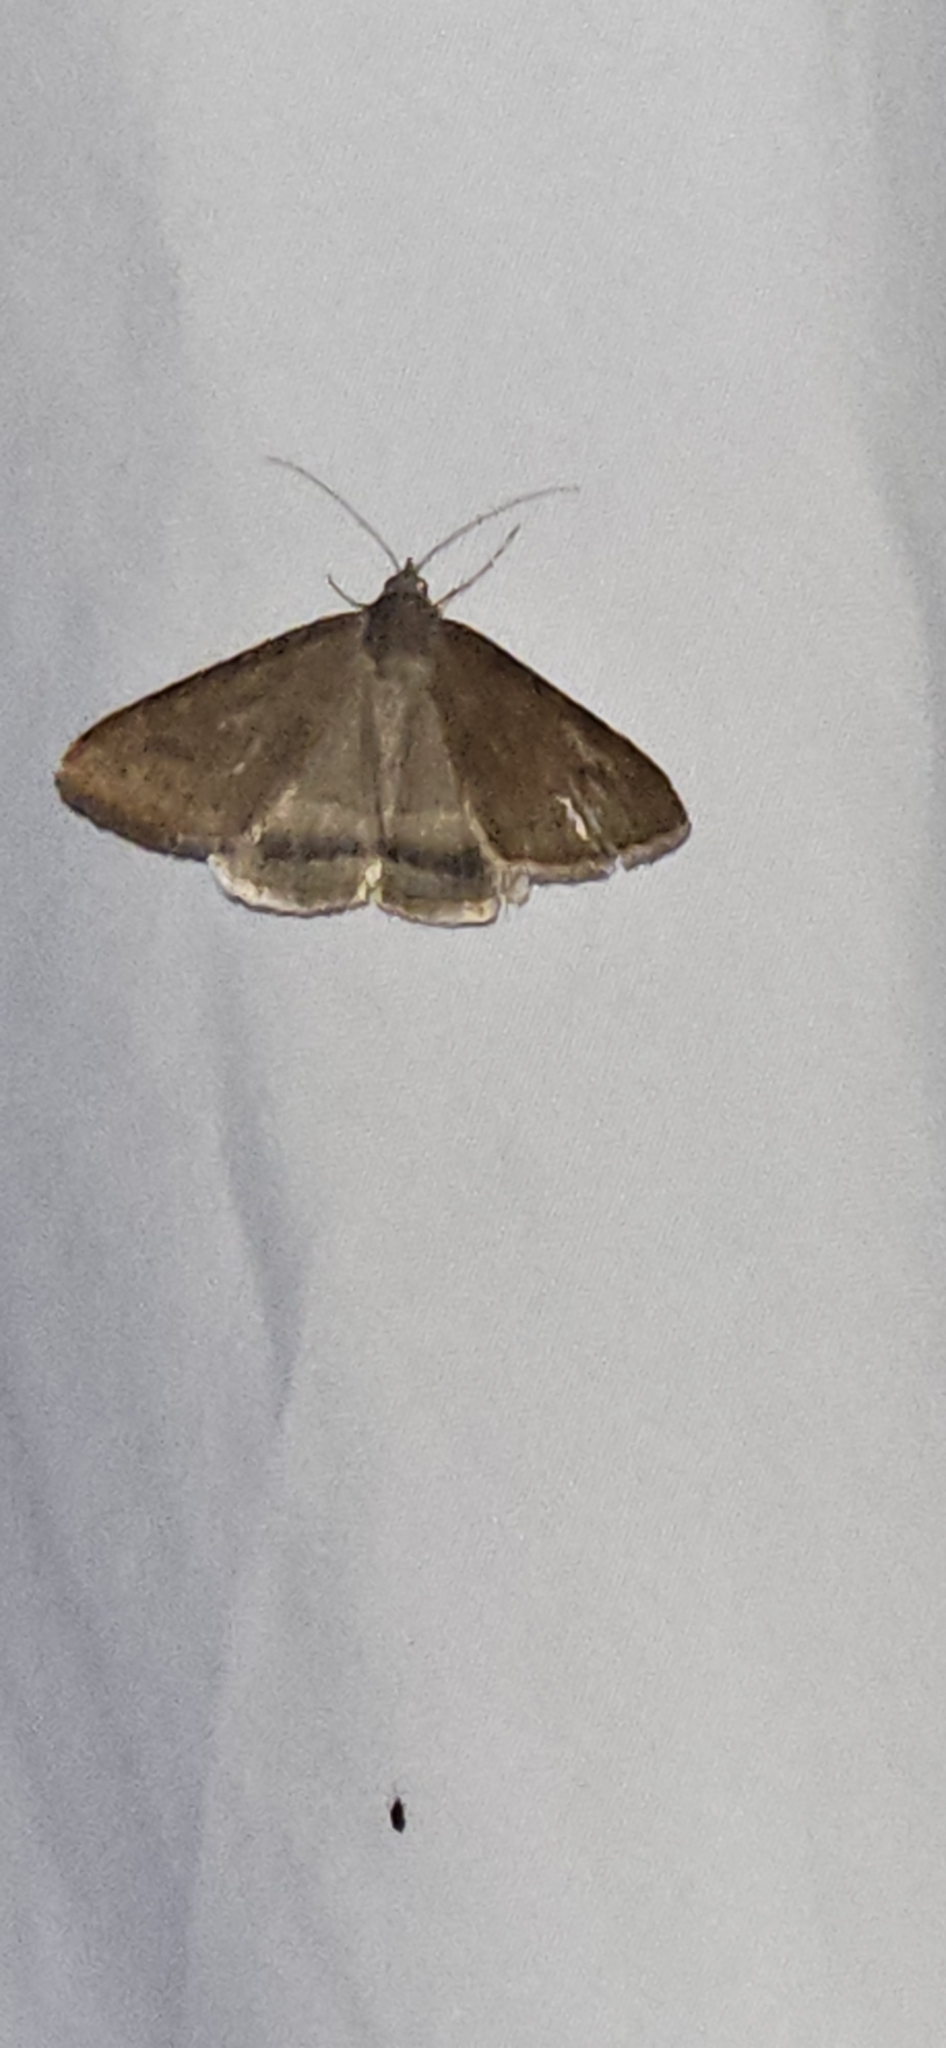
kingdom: Animalia
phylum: Arthropoda
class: Insecta
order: Lepidoptera
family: Erebidae
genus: Caenurgina
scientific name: Caenurgina erechtea
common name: Forage looper moth
